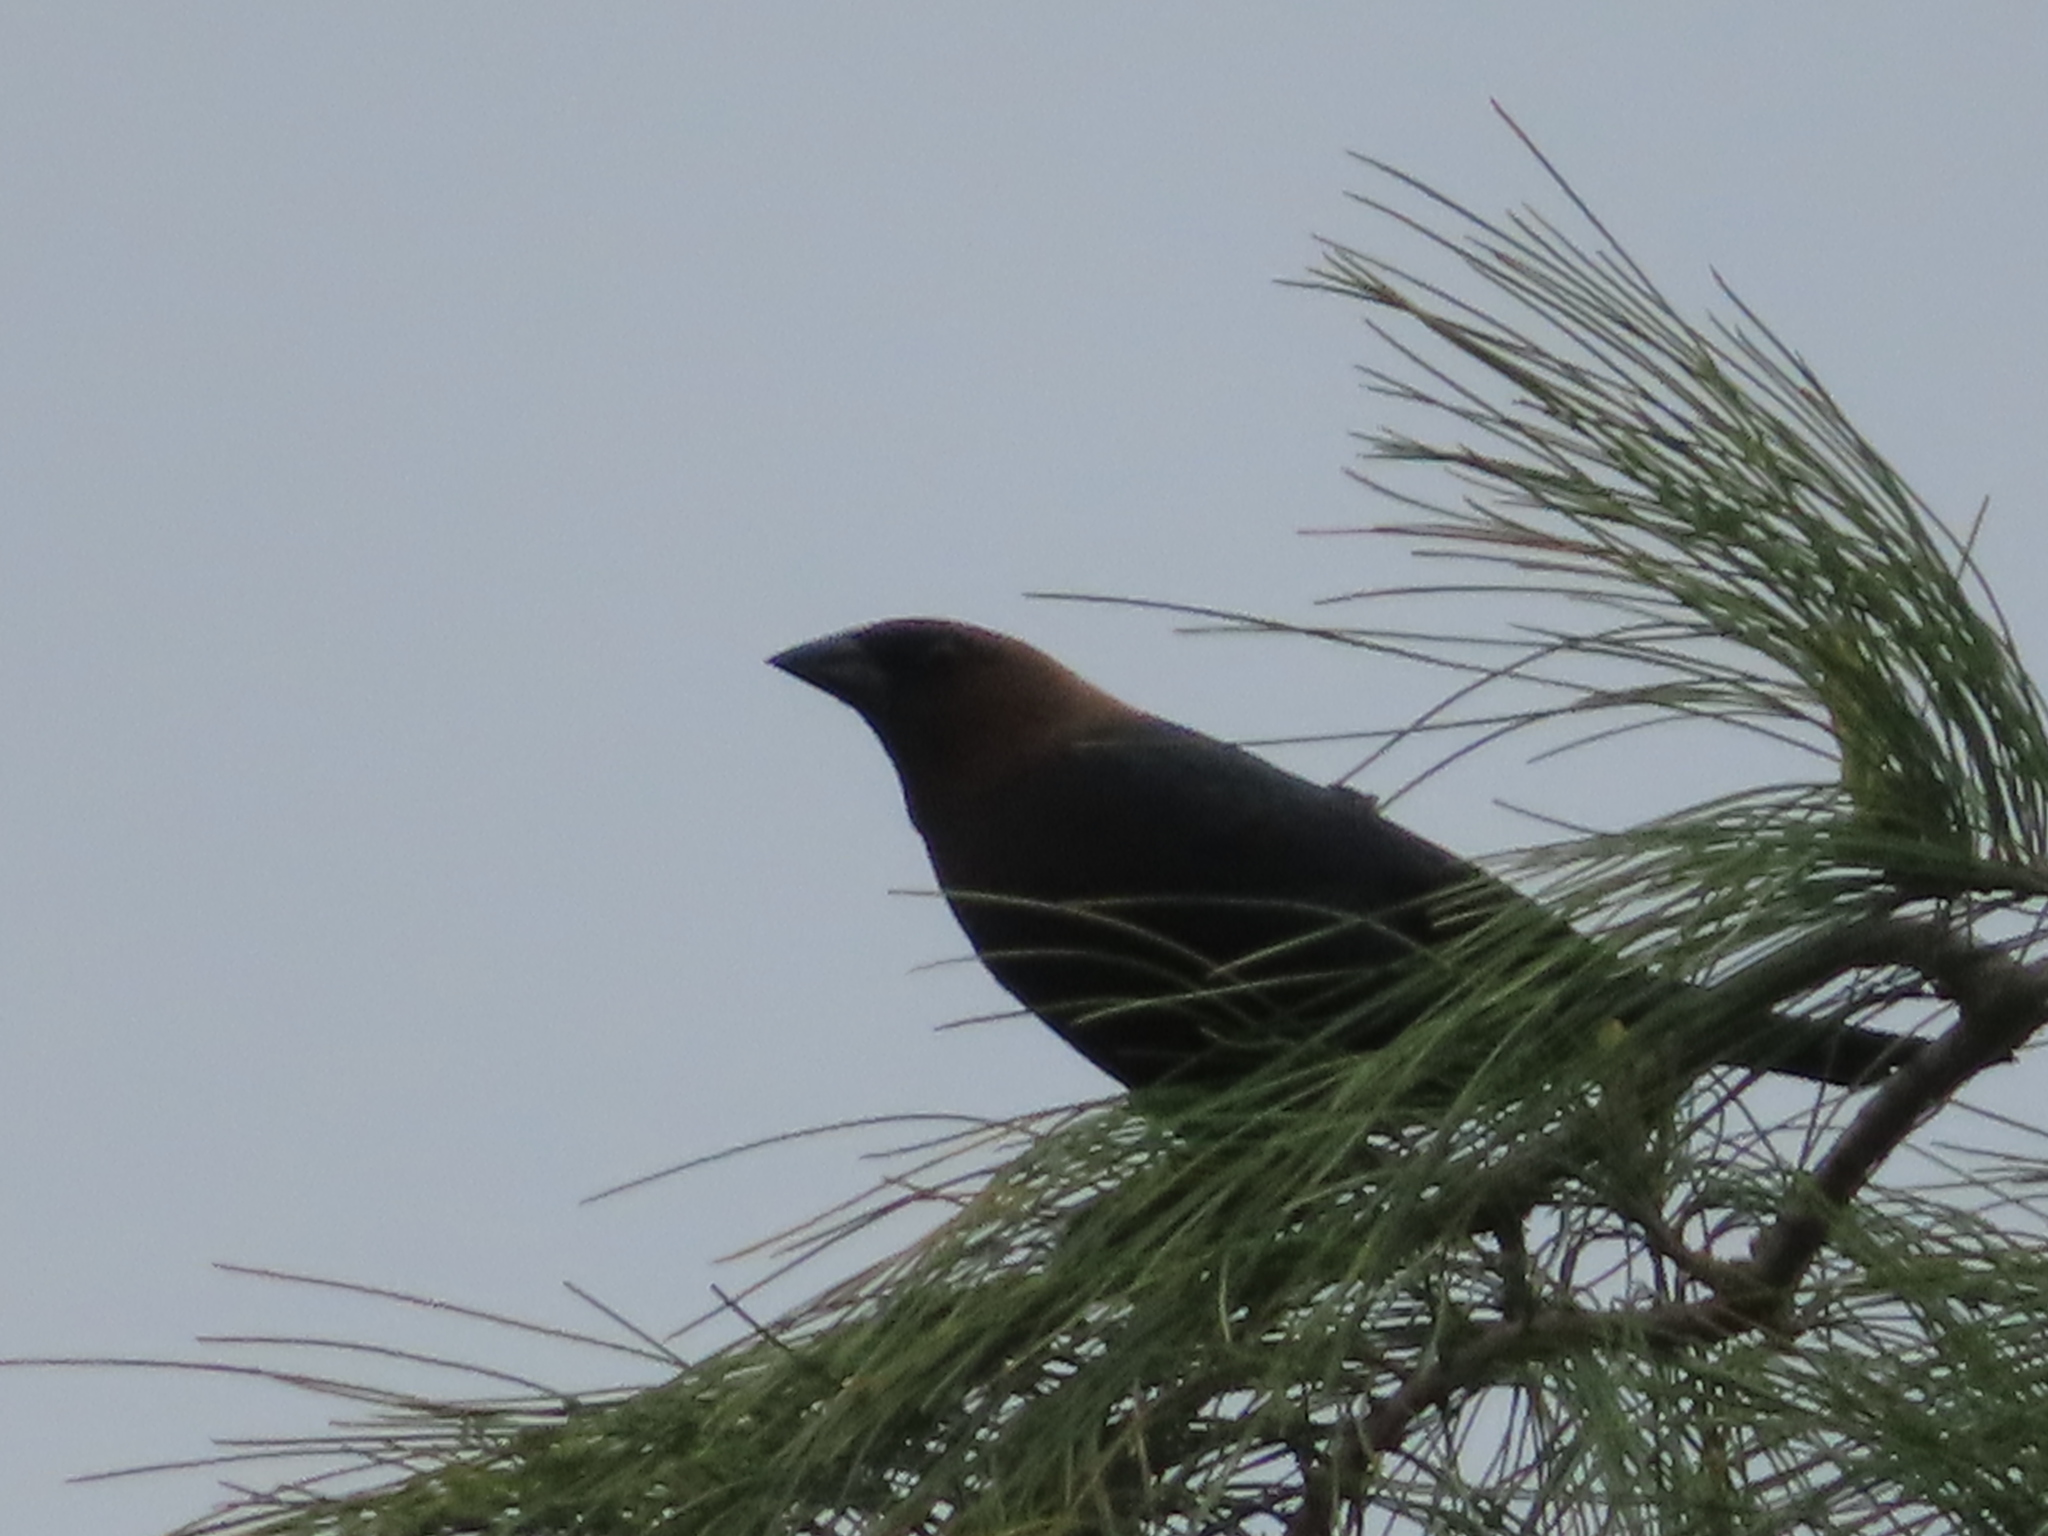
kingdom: Animalia
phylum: Chordata
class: Aves
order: Passeriformes
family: Icteridae
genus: Molothrus
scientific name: Molothrus ater
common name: Brown-headed cowbird
